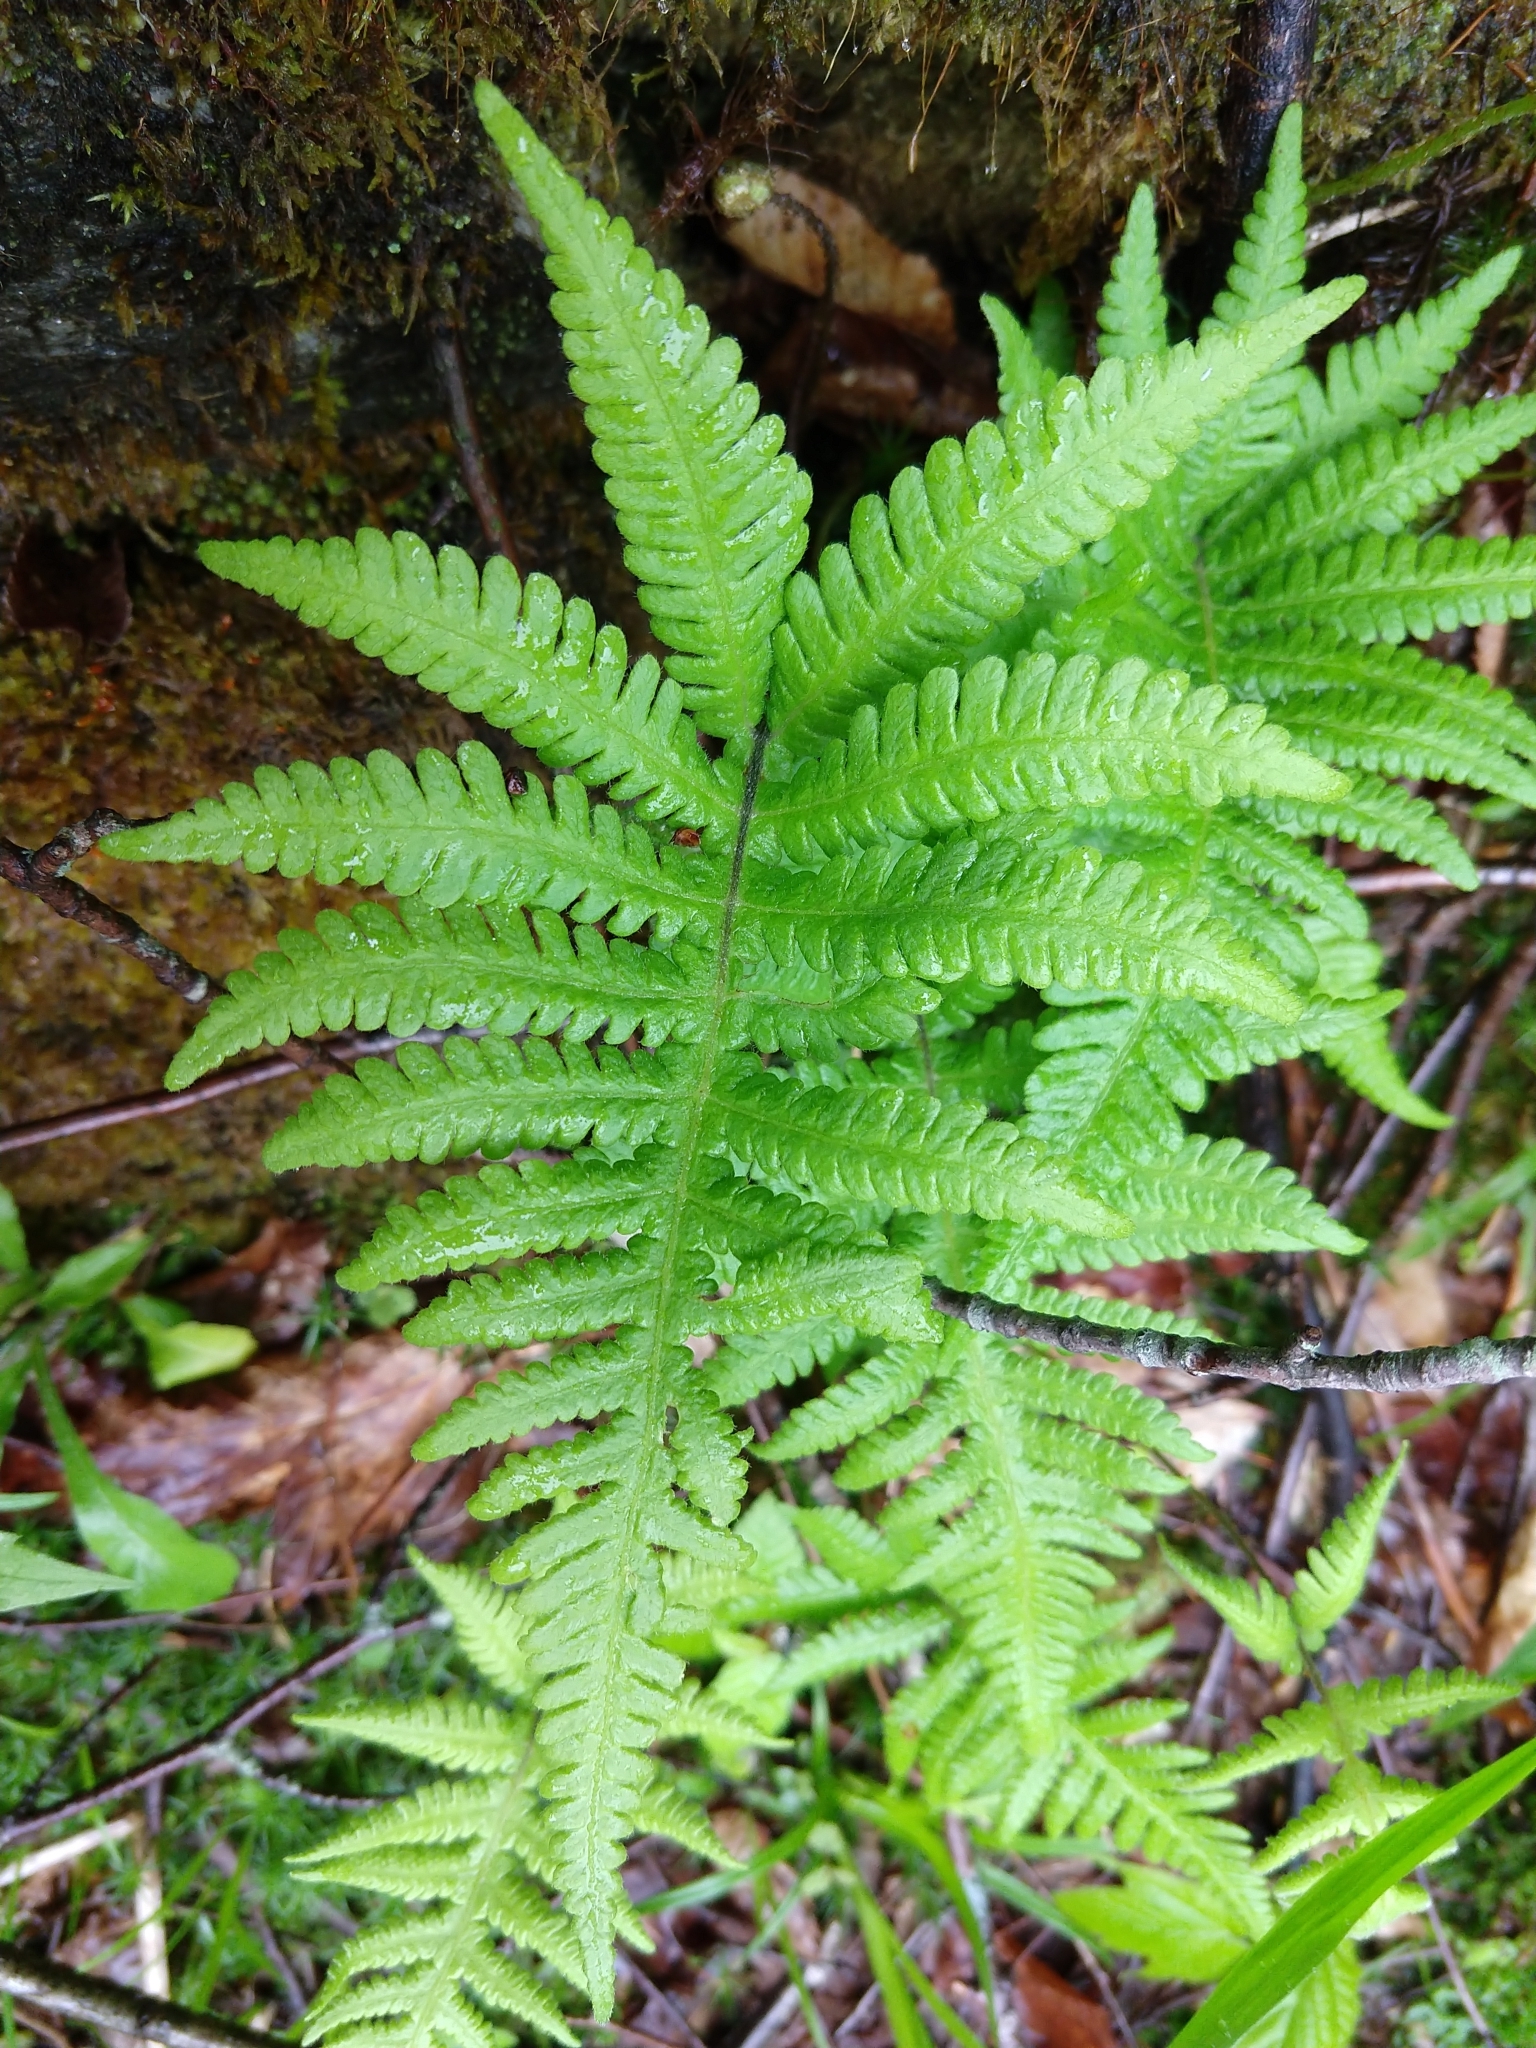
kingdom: Plantae
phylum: Tracheophyta
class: Polypodiopsida
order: Polypodiales
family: Thelypteridaceae
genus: Phegopteris
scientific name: Phegopteris connectilis
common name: Beech fern
